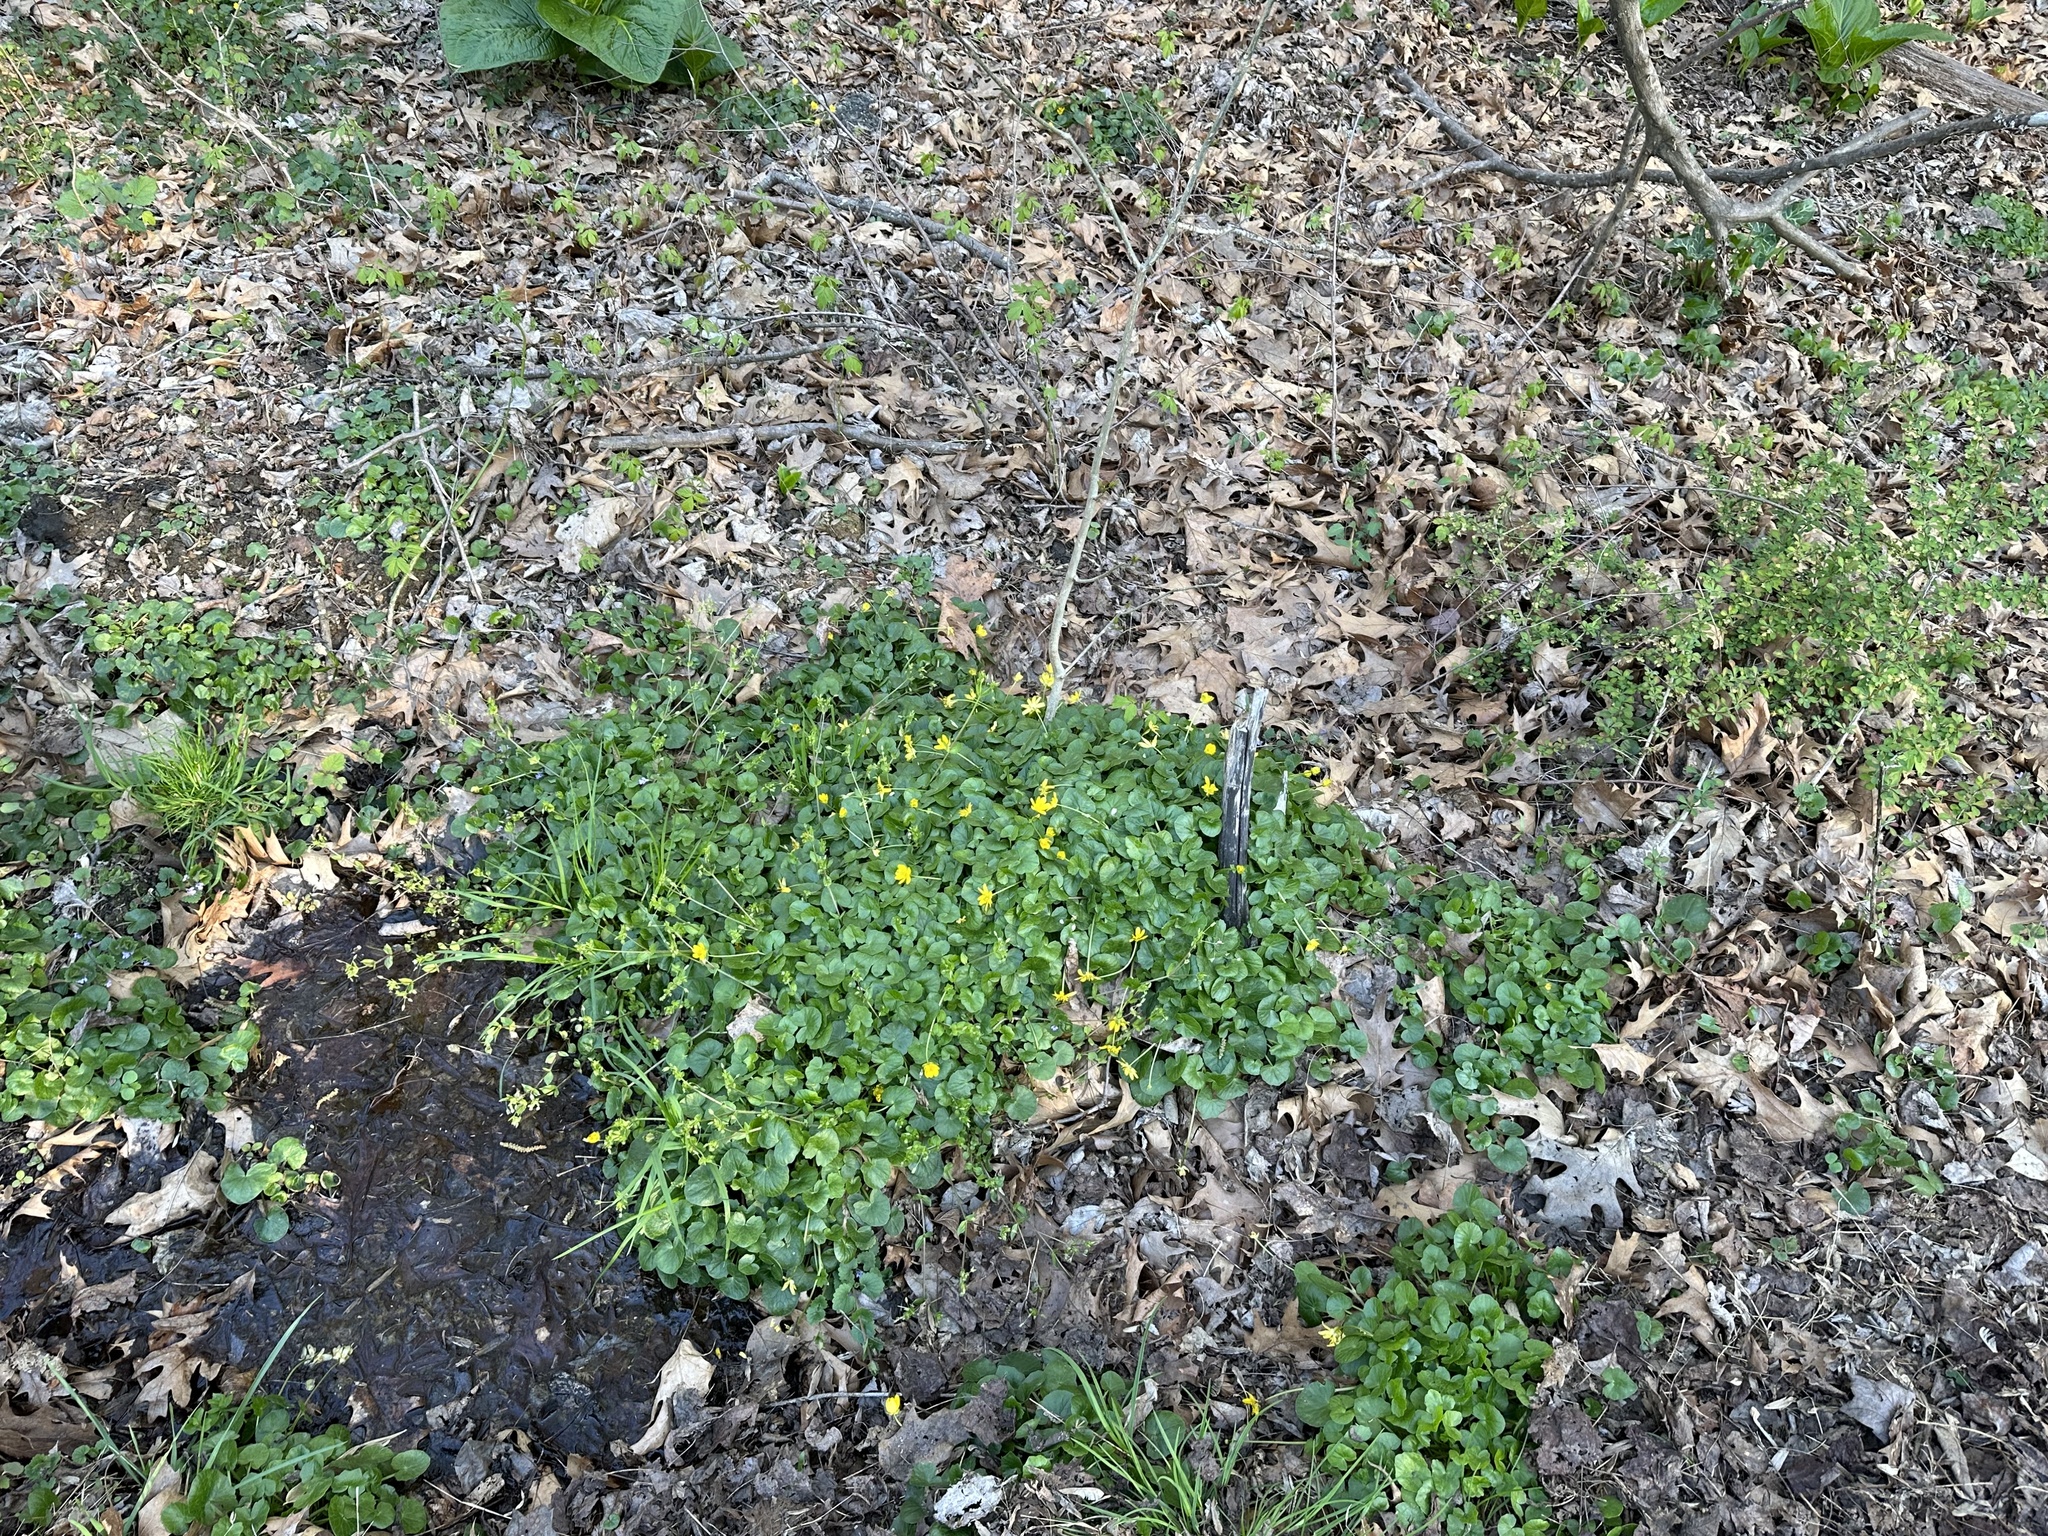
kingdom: Plantae
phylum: Tracheophyta
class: Magnoliopsida
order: Ranunculales
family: Ranunculaceae
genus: Ficaria
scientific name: Ficaria verna
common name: Lesser celandine
